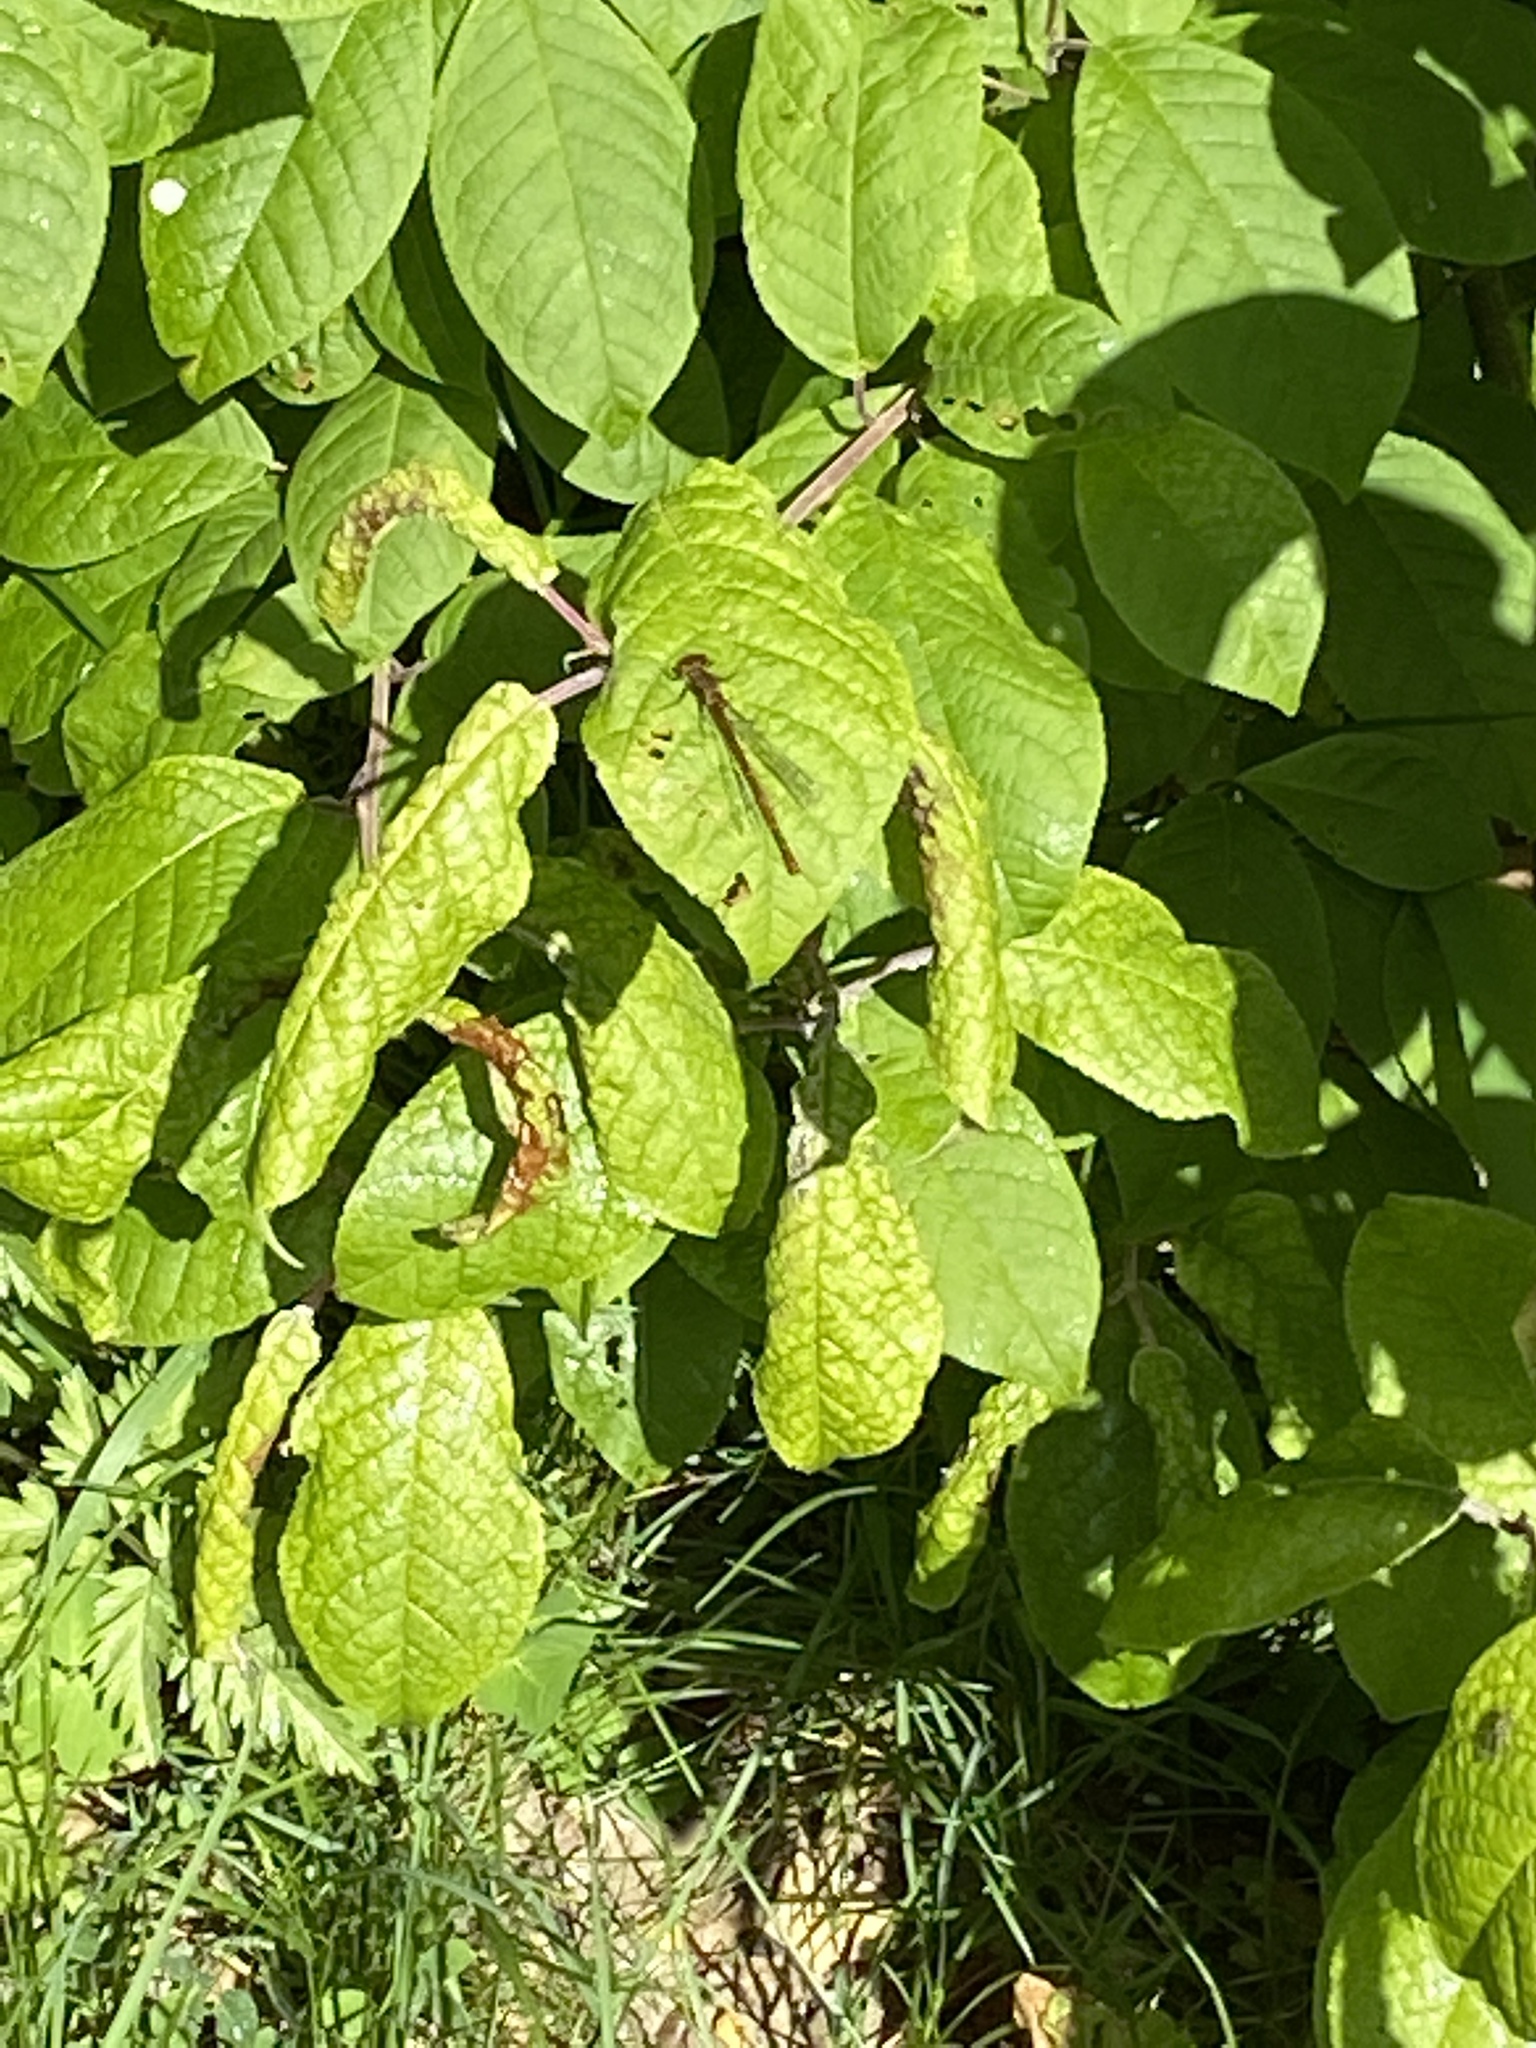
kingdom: Animalia
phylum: Arthropoda
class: Insecta
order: Odonata
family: Coenagrionidae
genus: Pyrrhosoma
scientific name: Pyrrhosoma nymphula
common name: Large red damsel
